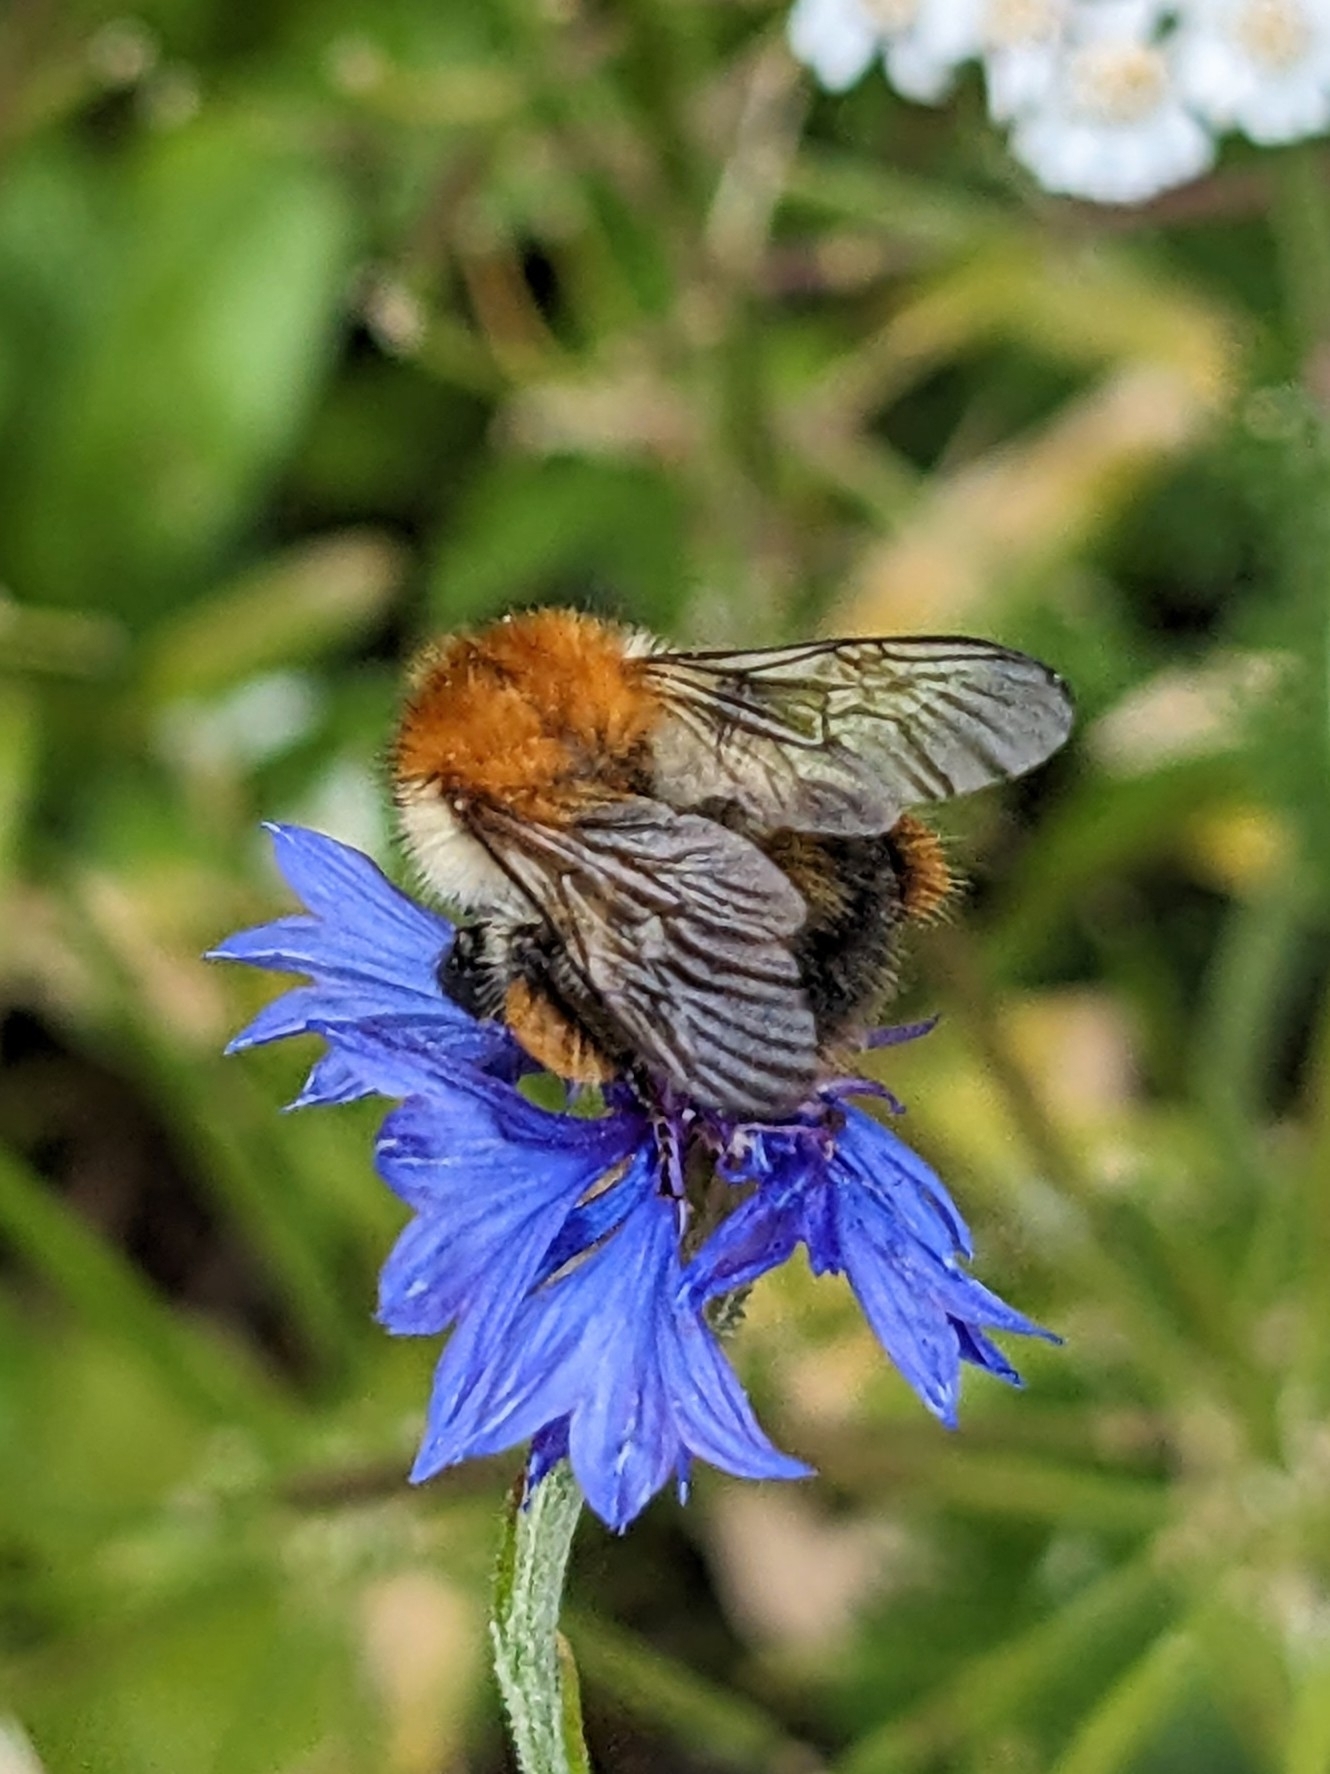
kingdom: Animalia
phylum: Arthropoda
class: Insecta
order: Hymenoptera
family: Apidae
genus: Bombus
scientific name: Bombus pascuorum
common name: Common carder bee
